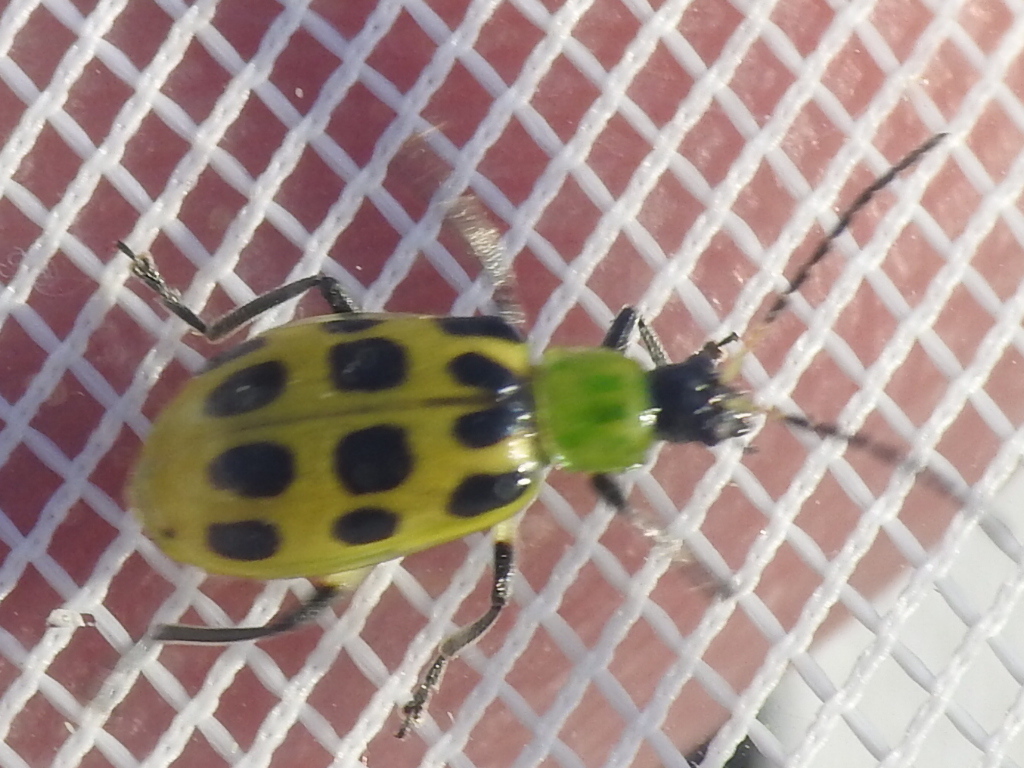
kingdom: Animalia
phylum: Arthropoda
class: Insecta
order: Coleoptera
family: Chrysomelidae
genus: Diabrotica
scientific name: Diabrotica undecimpunctata
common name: Spotted cucumber beetle
